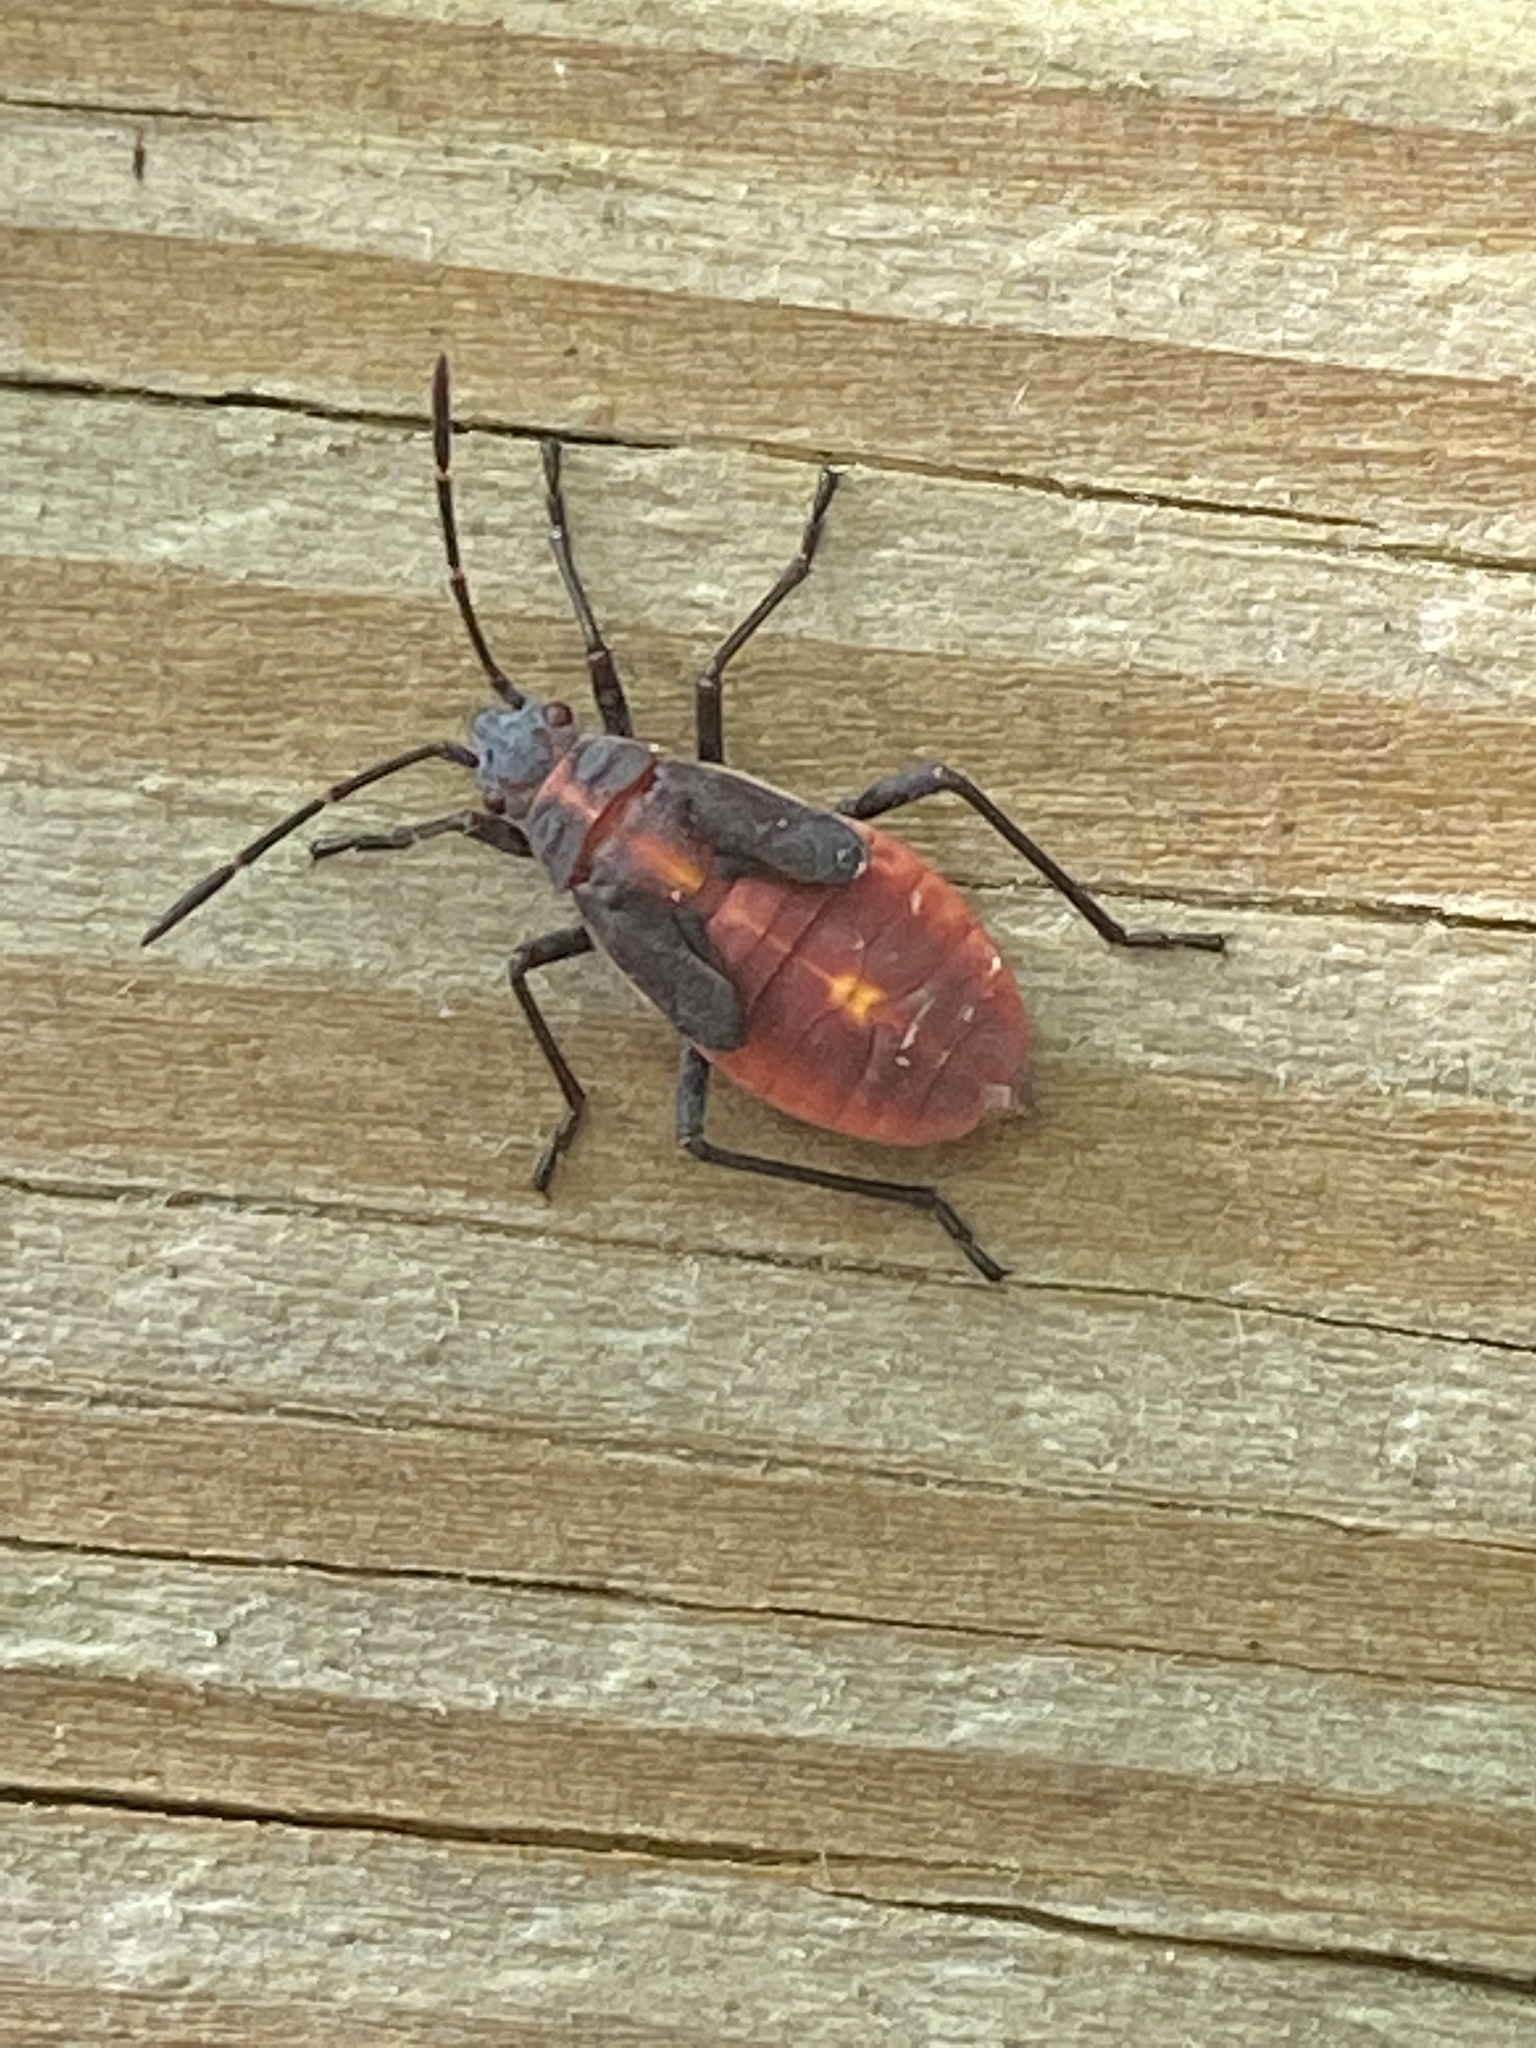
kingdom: Animalia
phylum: Arthropoda
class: Insecta
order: Hemiptera
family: Rhopalidae
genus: Boisea
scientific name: Boisea trivittata
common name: Boxelder bug
